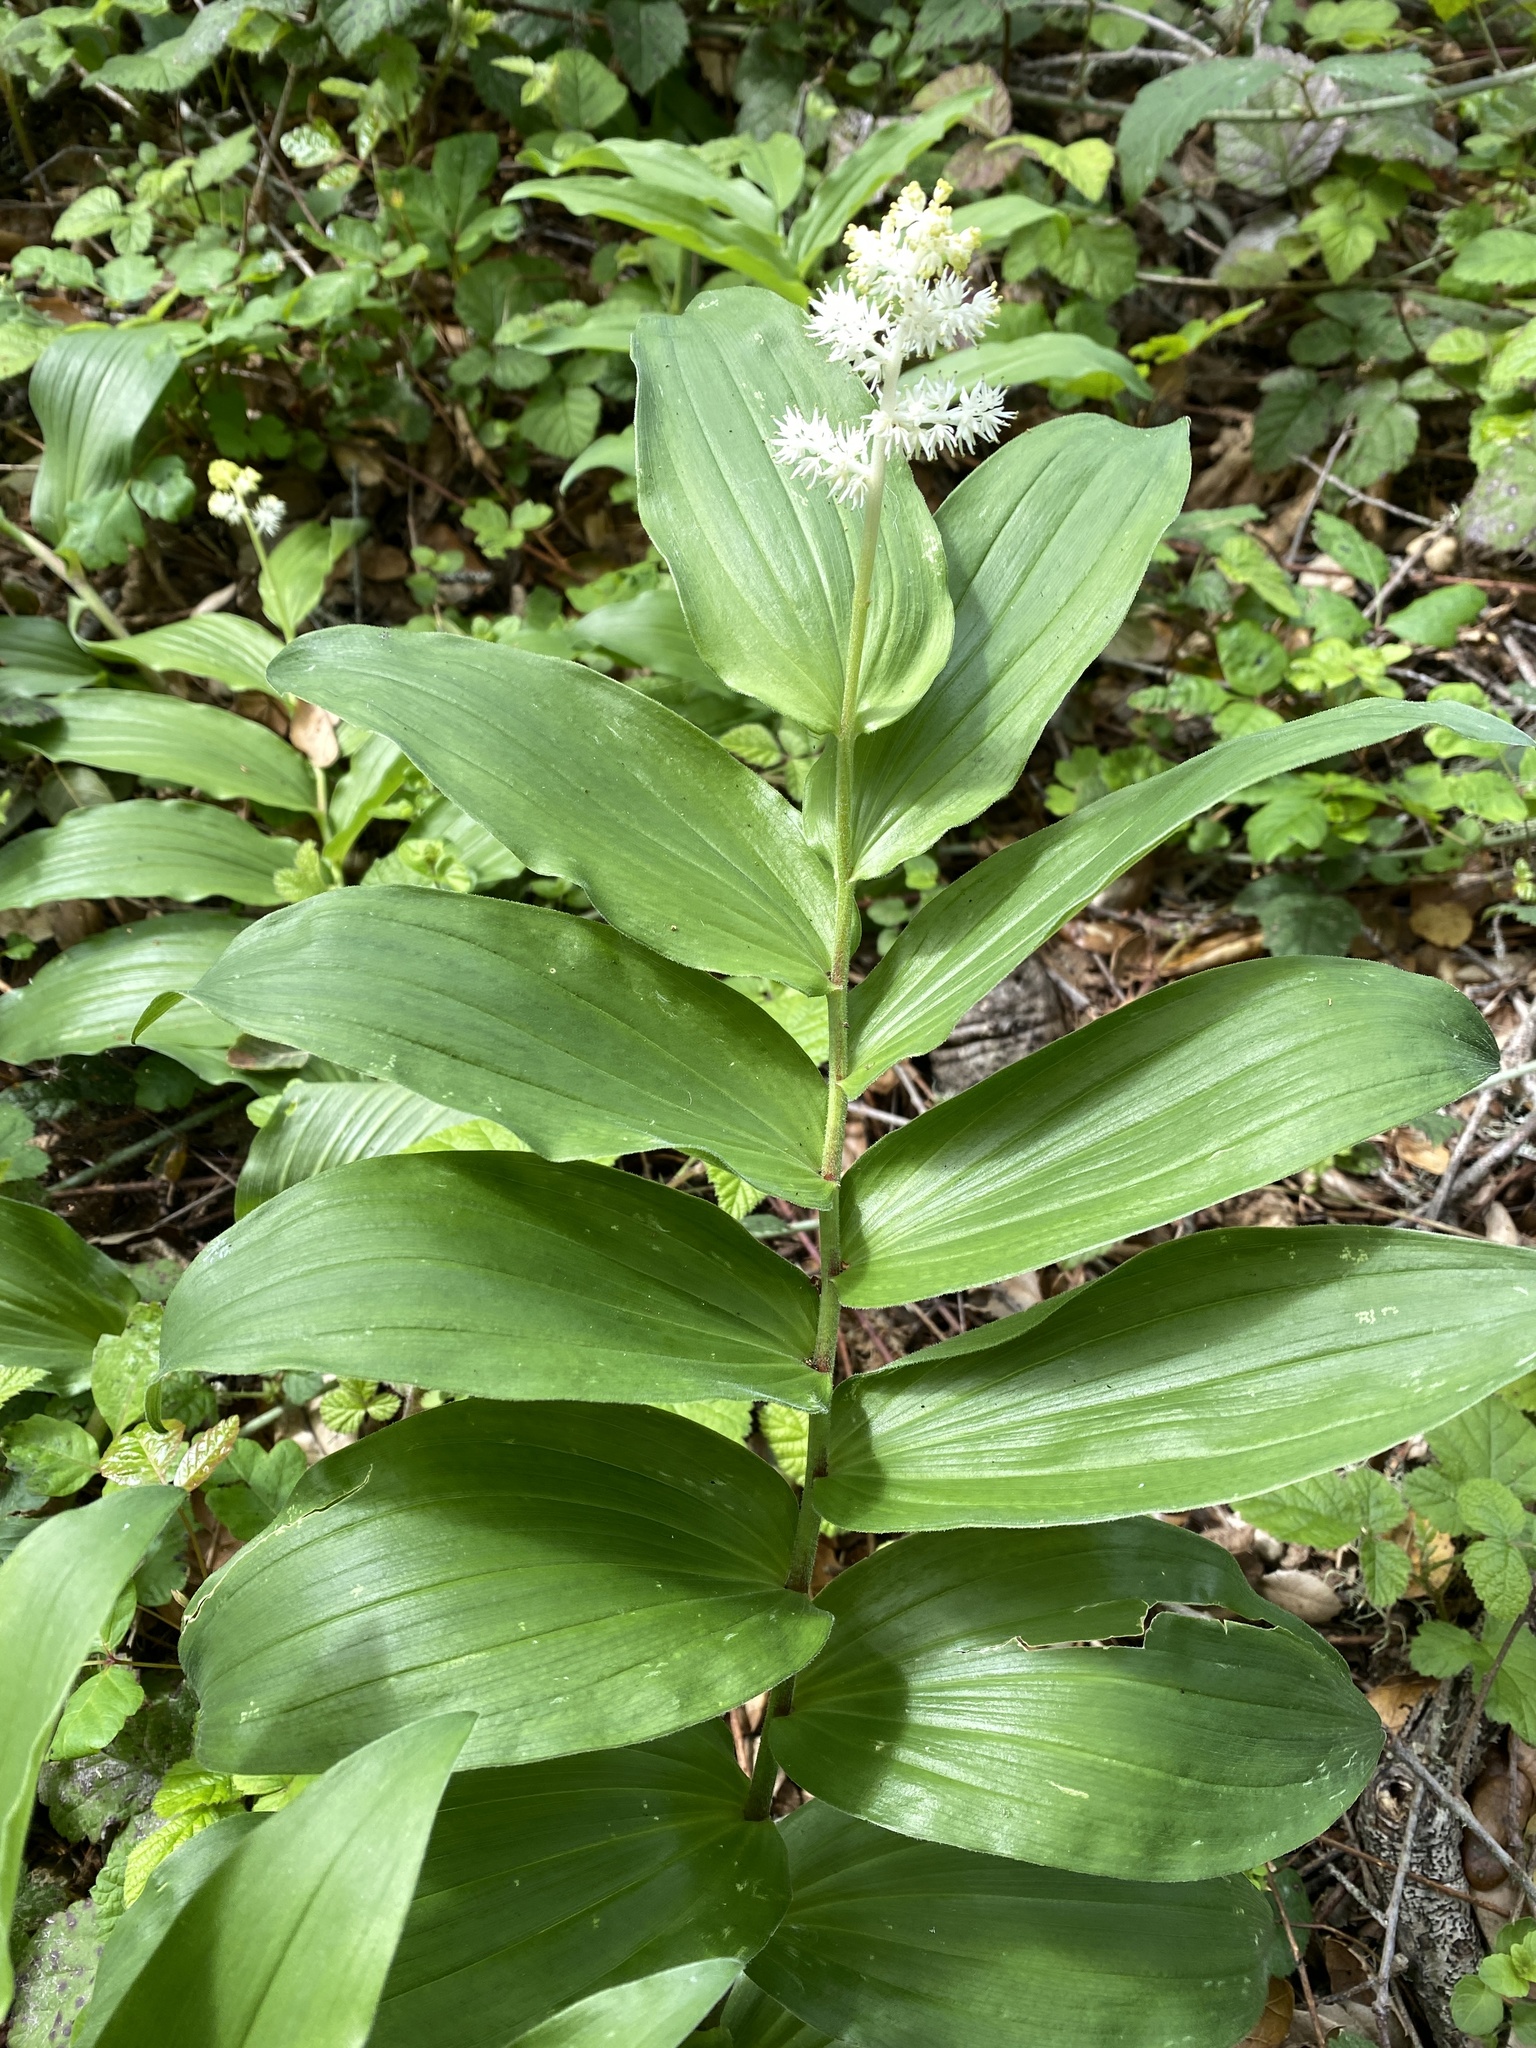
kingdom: Plantae
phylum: Tracheophyta
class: Liliopsida
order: Asparagales
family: Asparagaceae
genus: Maianthemum
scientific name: Maianthemum racemosum
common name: False spikenard
